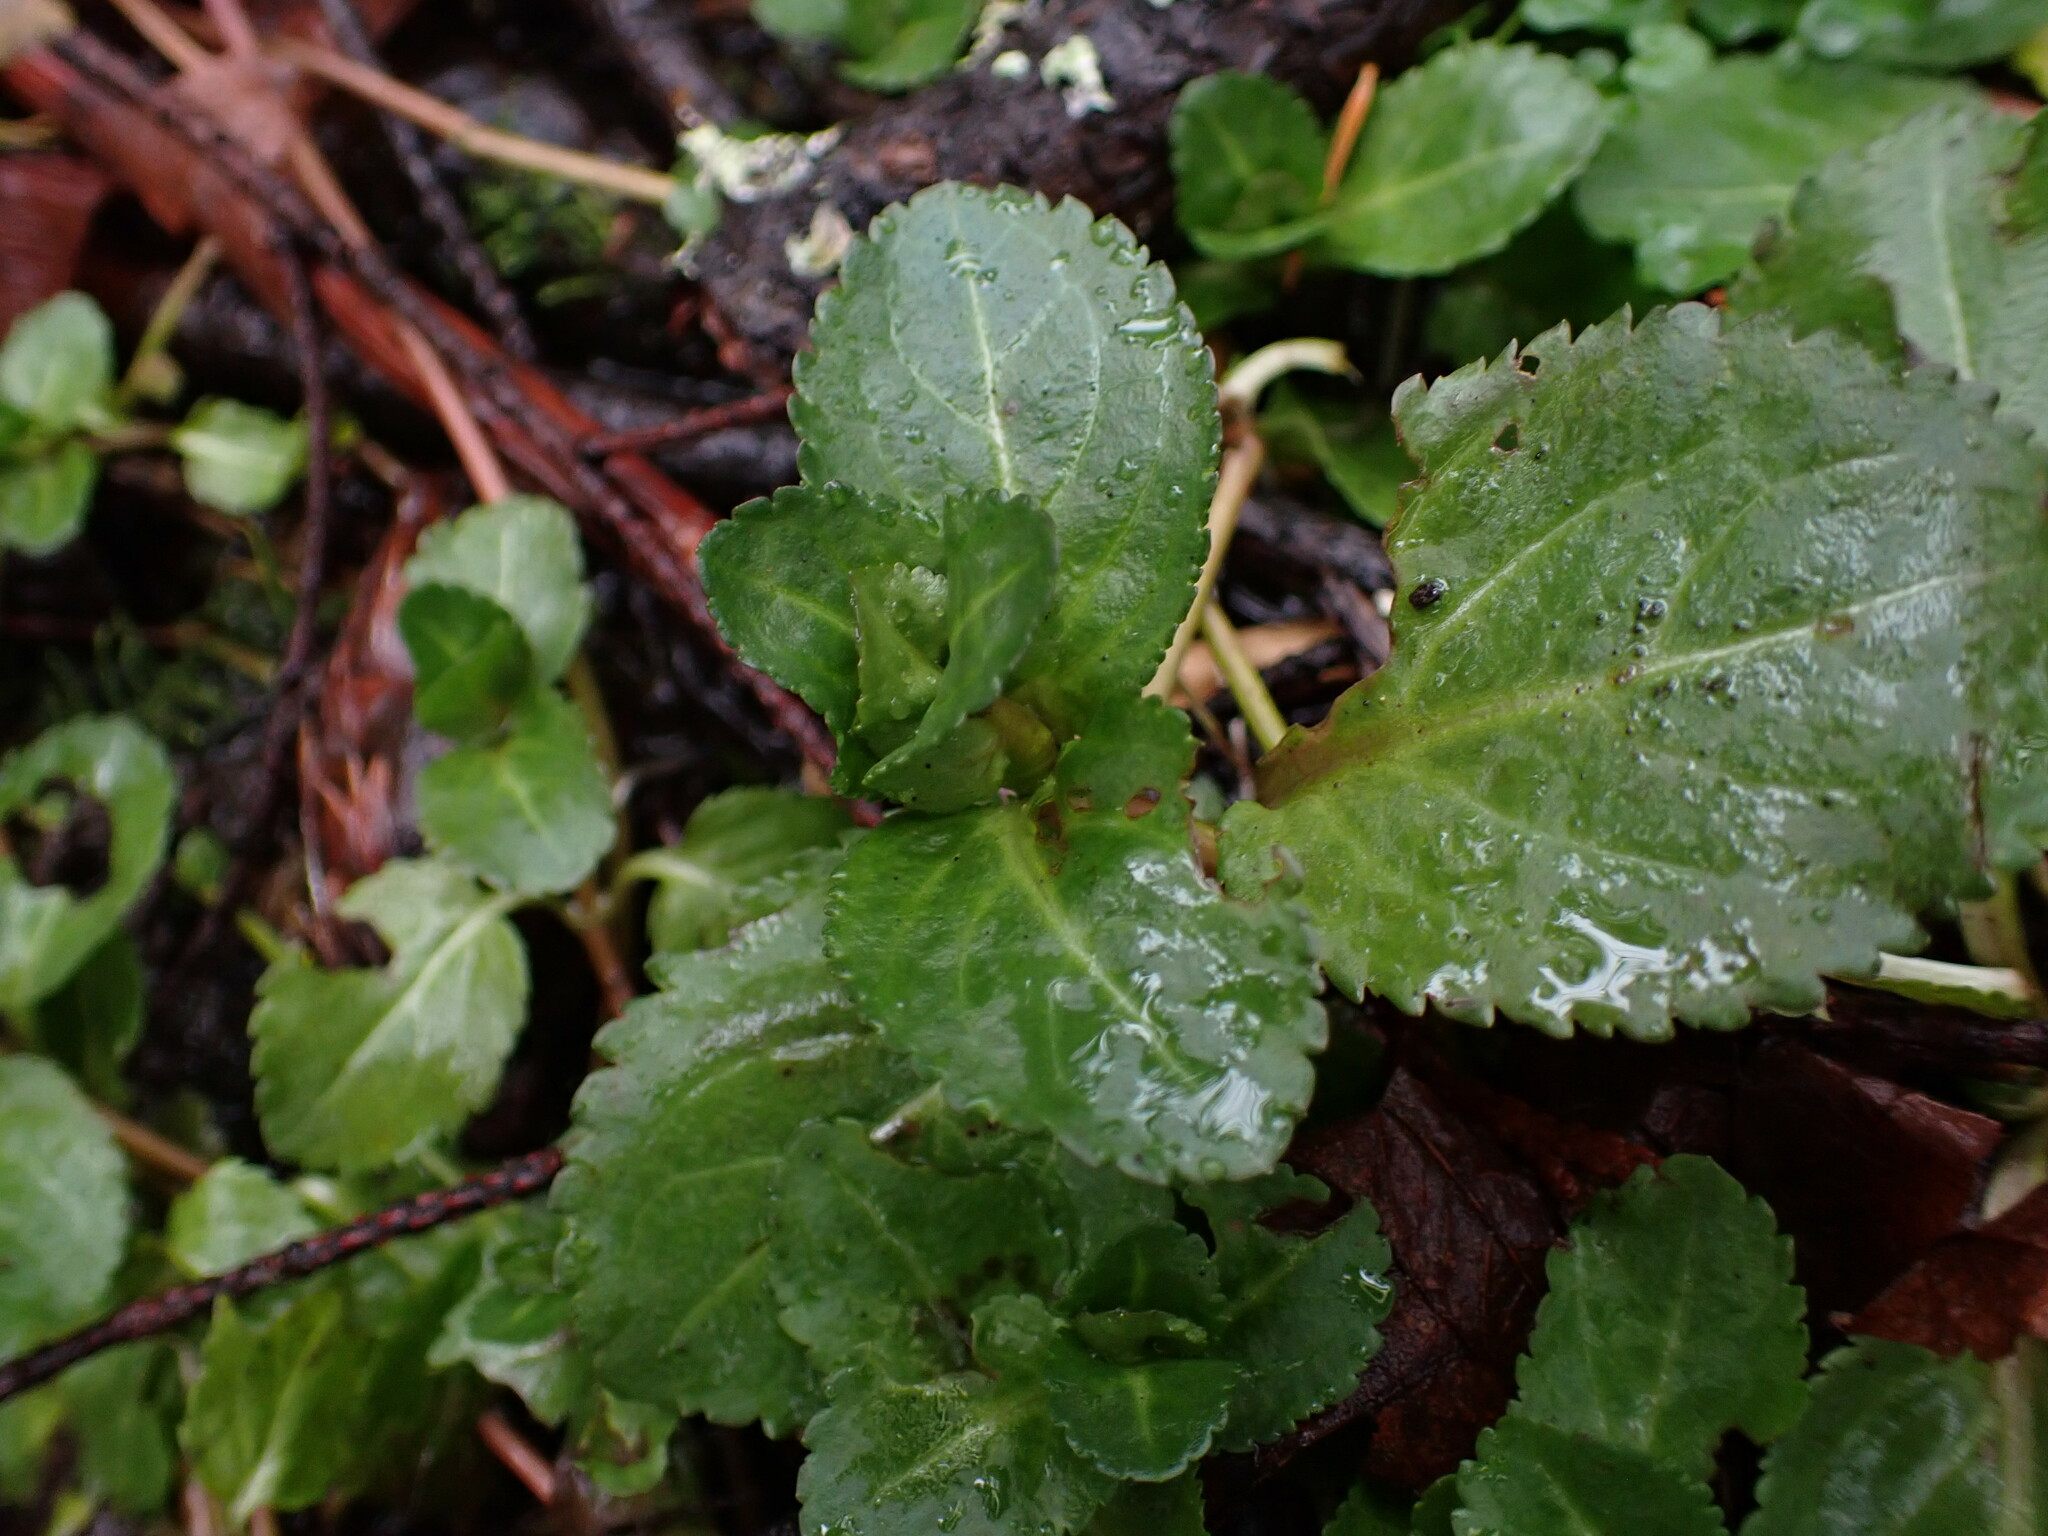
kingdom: Plantae
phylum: Tracheophyta
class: Magnoliopsida
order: Lamiales
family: Plantaginaceae
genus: Veronica
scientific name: Veronica officinalis
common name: Common speedwell
